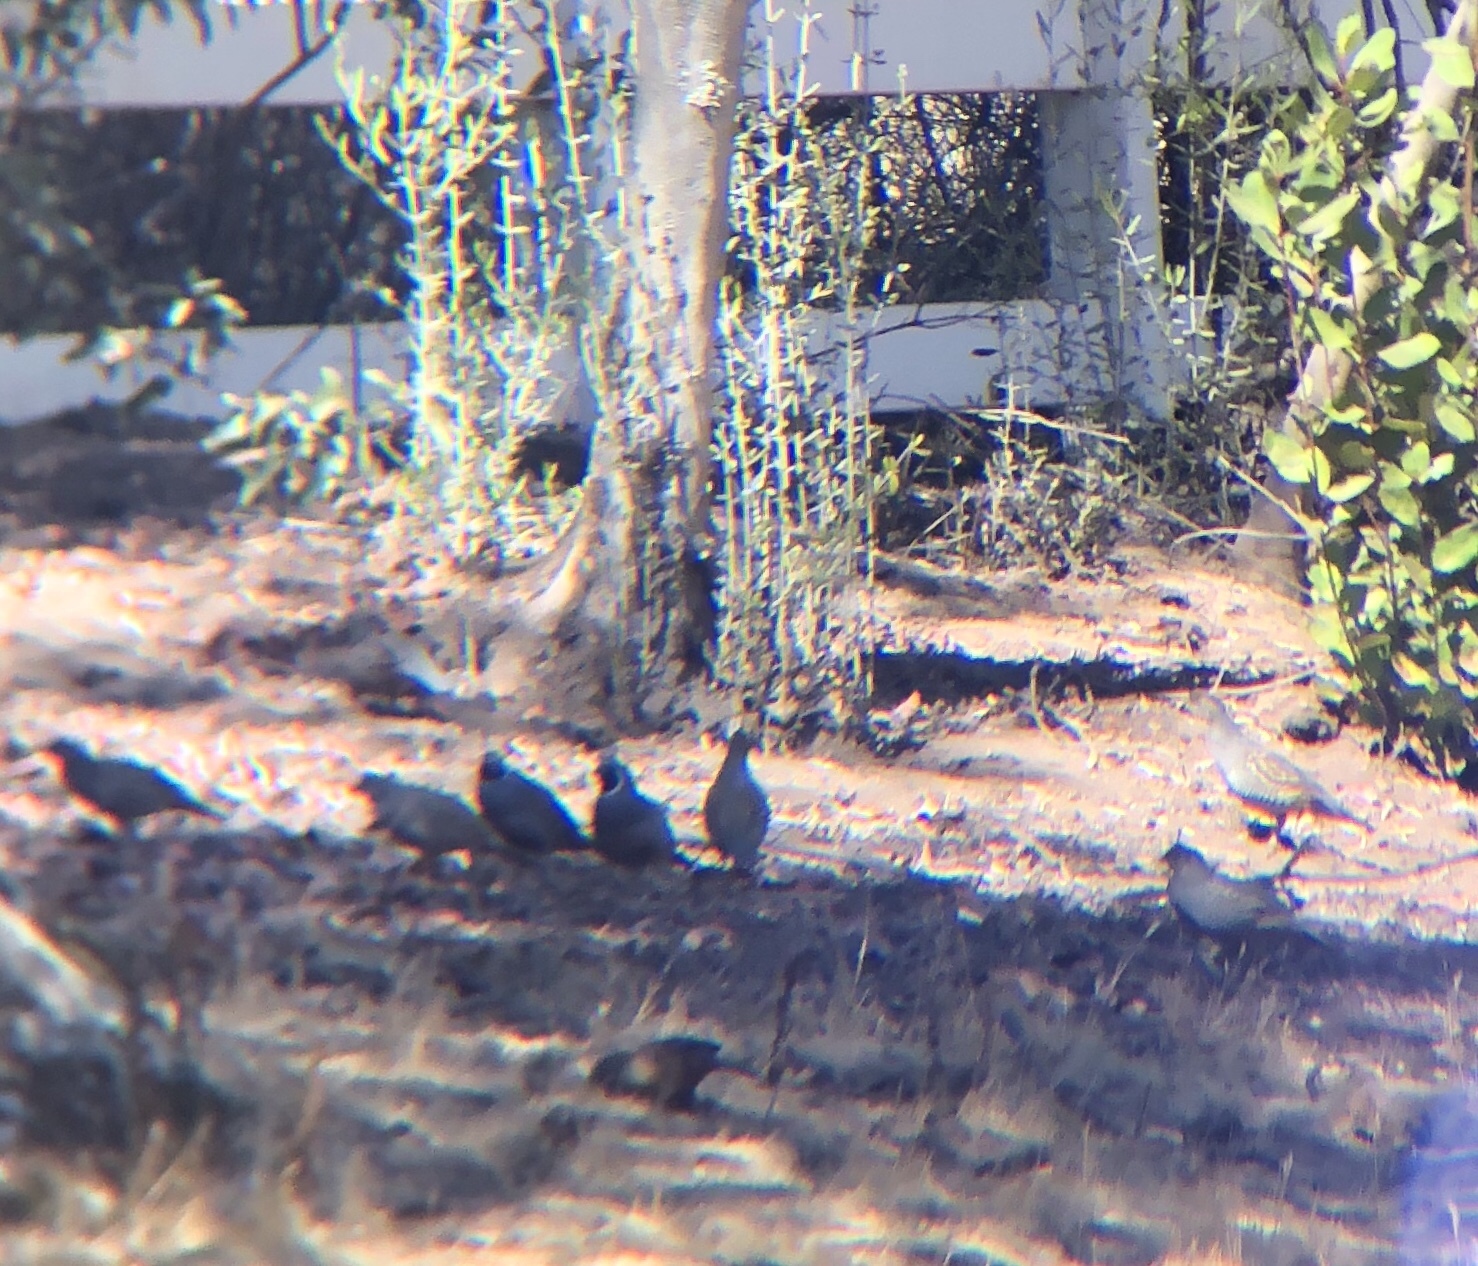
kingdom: Animalia
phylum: Chordata
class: Aves
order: Galliformes
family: Odontophoridae
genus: Callipepla
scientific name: Callipepla californica
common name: California quail
